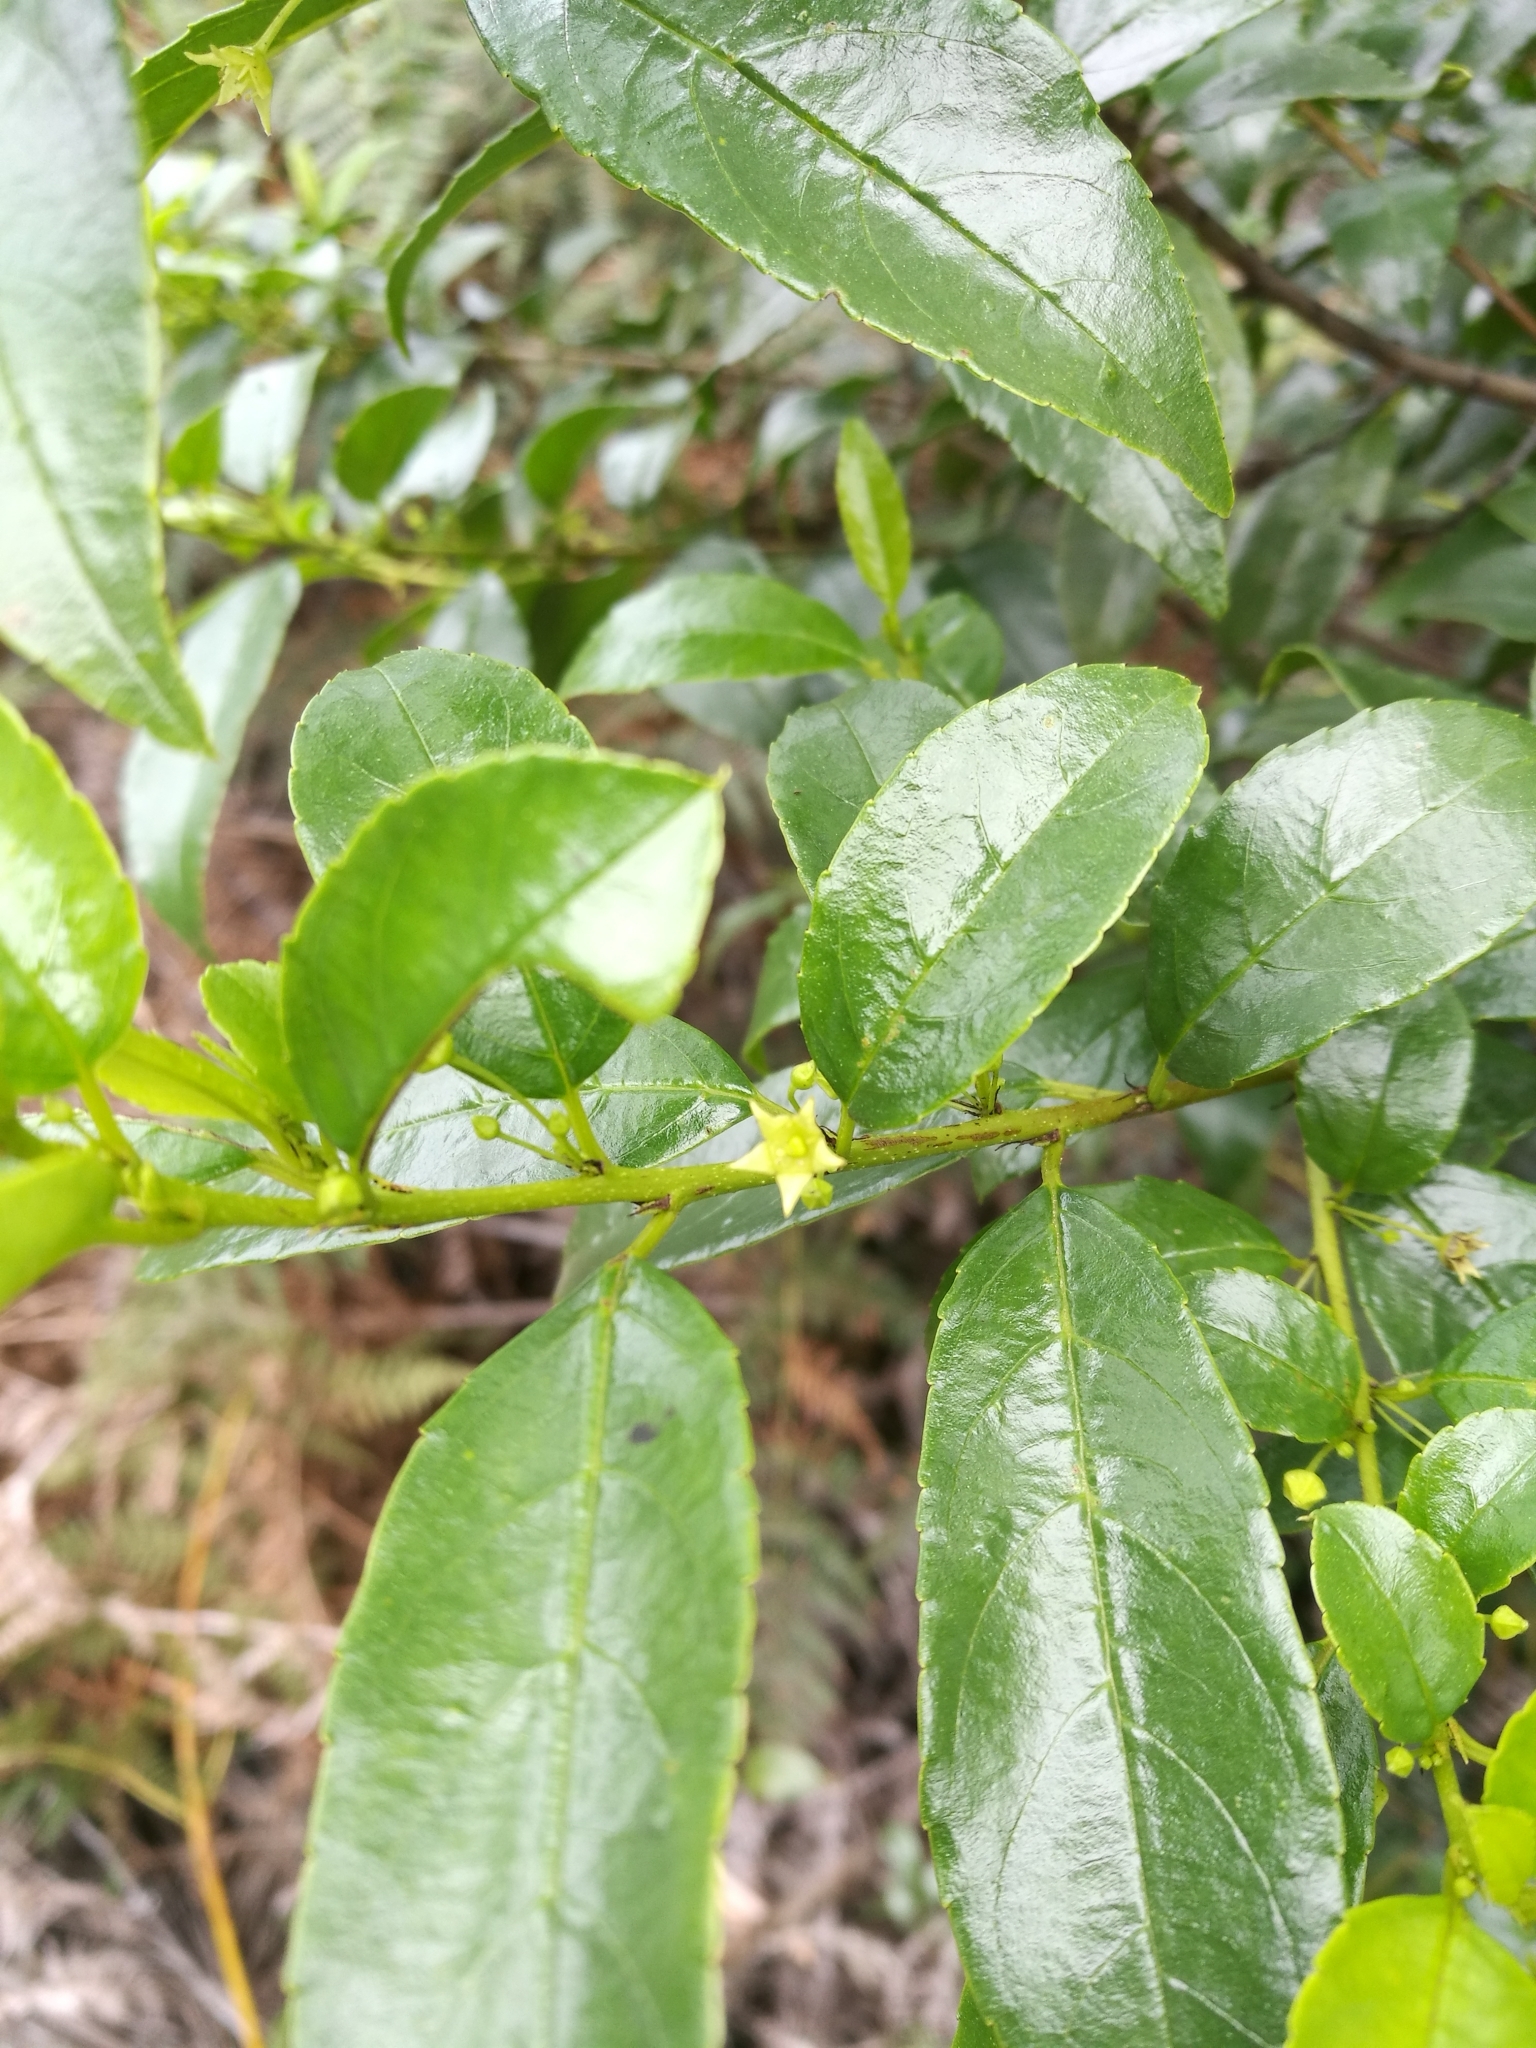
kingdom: Plantae
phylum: Tracheophyta
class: Magnoliopsida
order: Rosales
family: Rhamnaceae
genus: Rhamnus
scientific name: Rhamnus prinoides
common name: Dogwood
